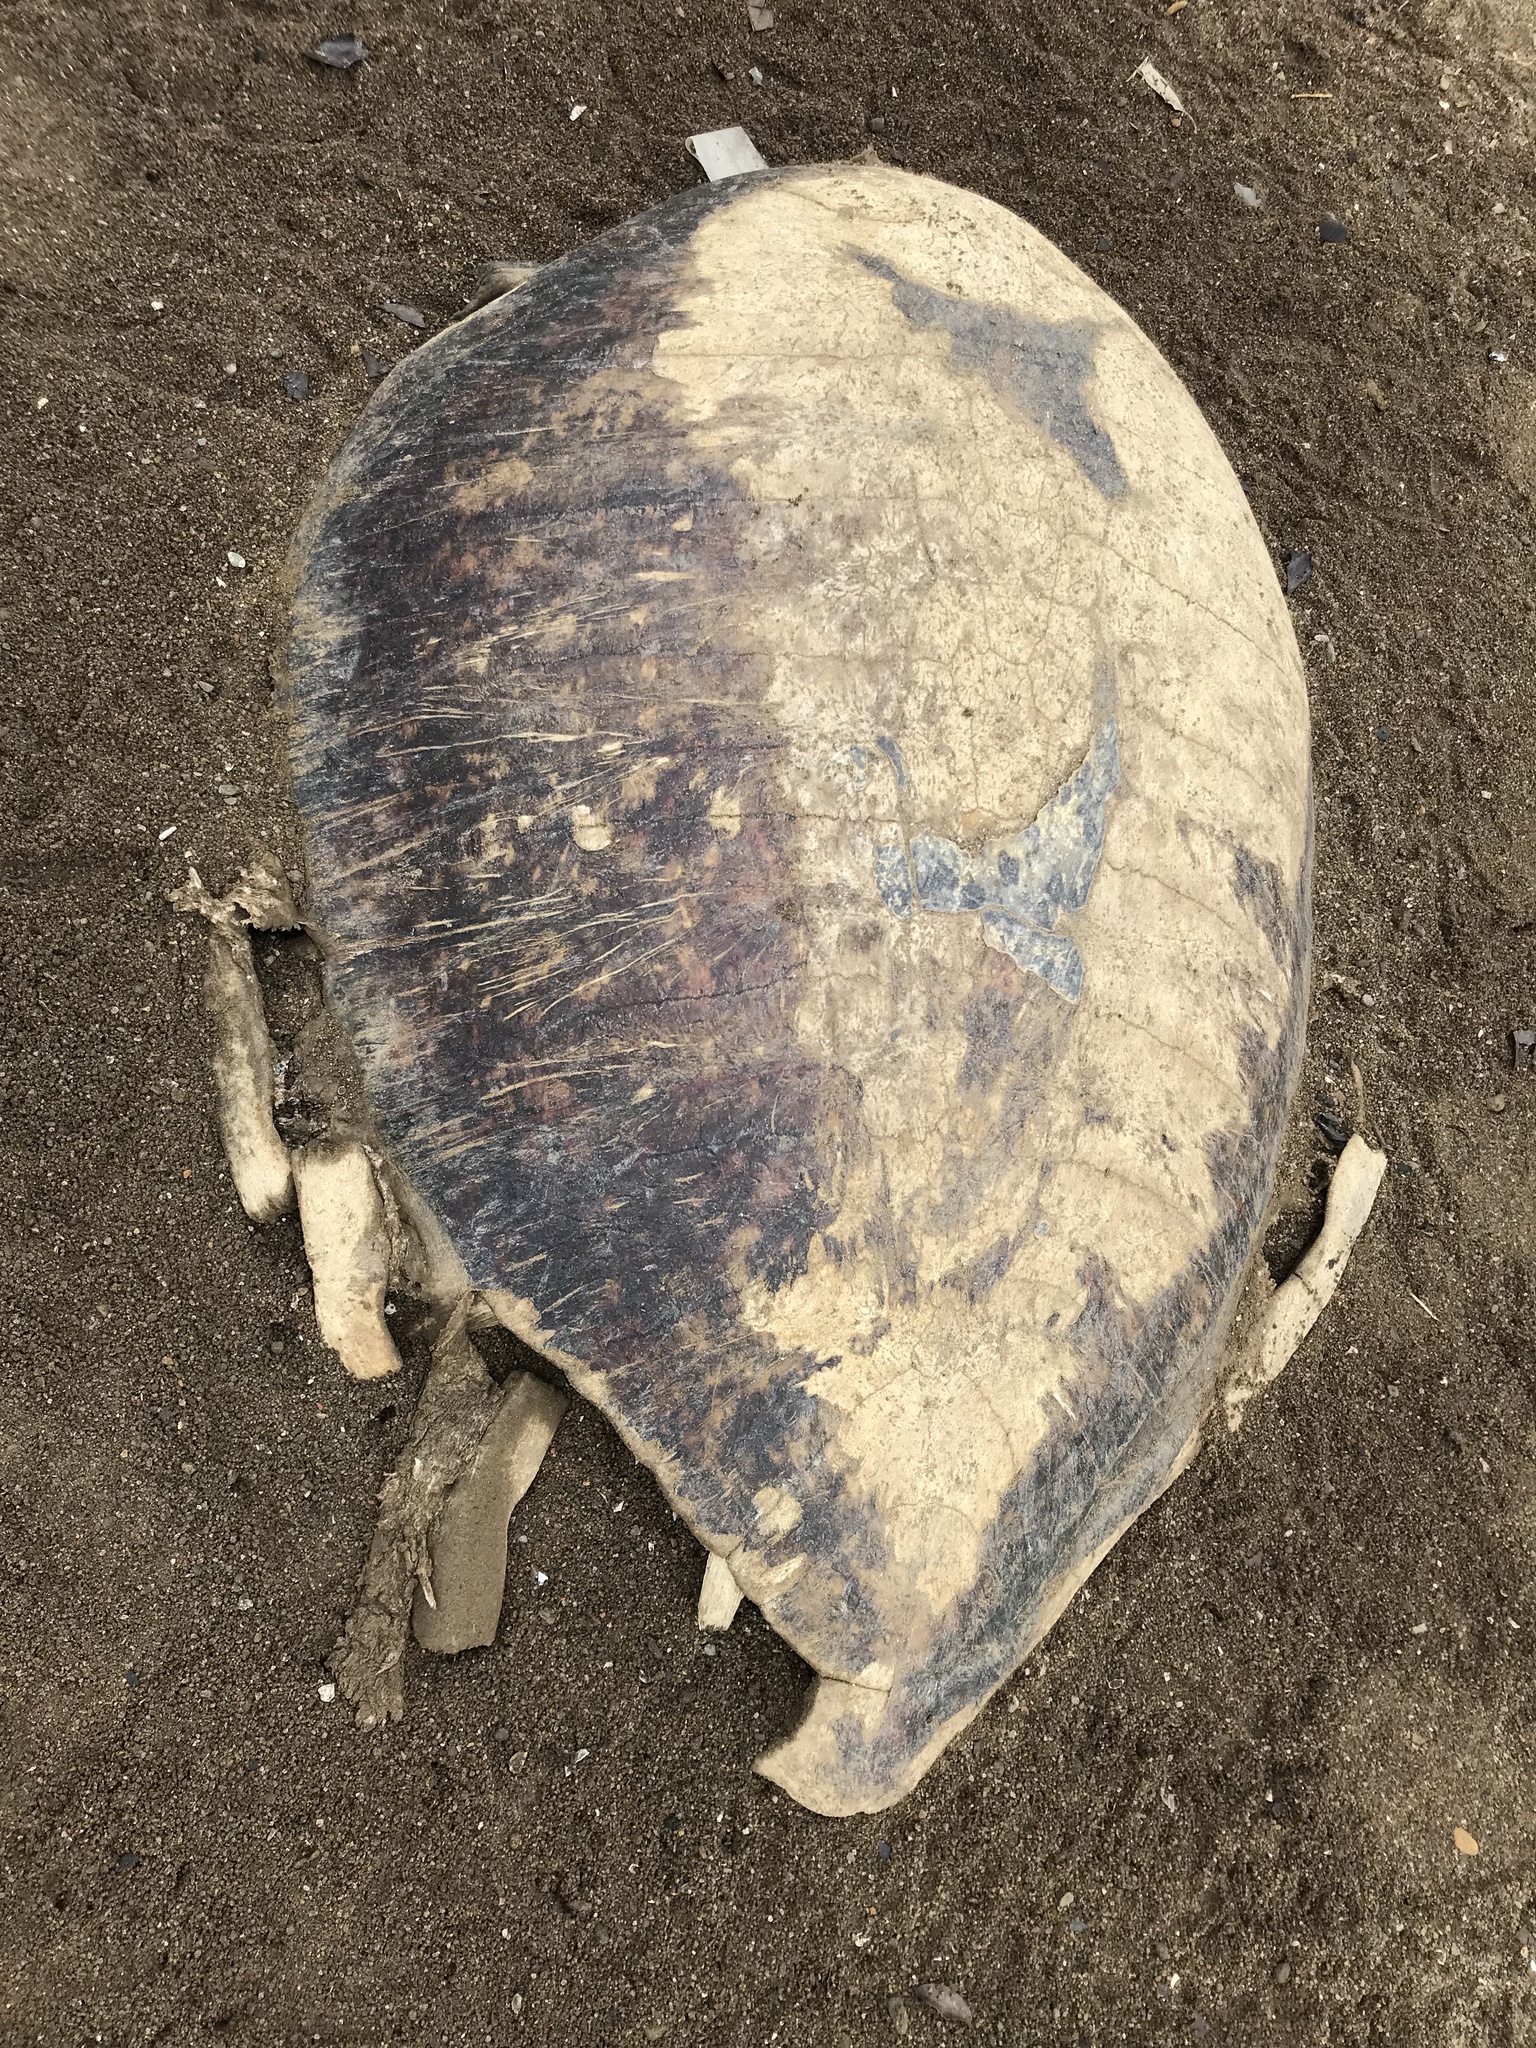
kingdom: Animalia
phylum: Chordata
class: Testudines
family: Cheloniidae
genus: Lepidochelys
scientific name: Lepidochelys olivacea
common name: Olive ridley
